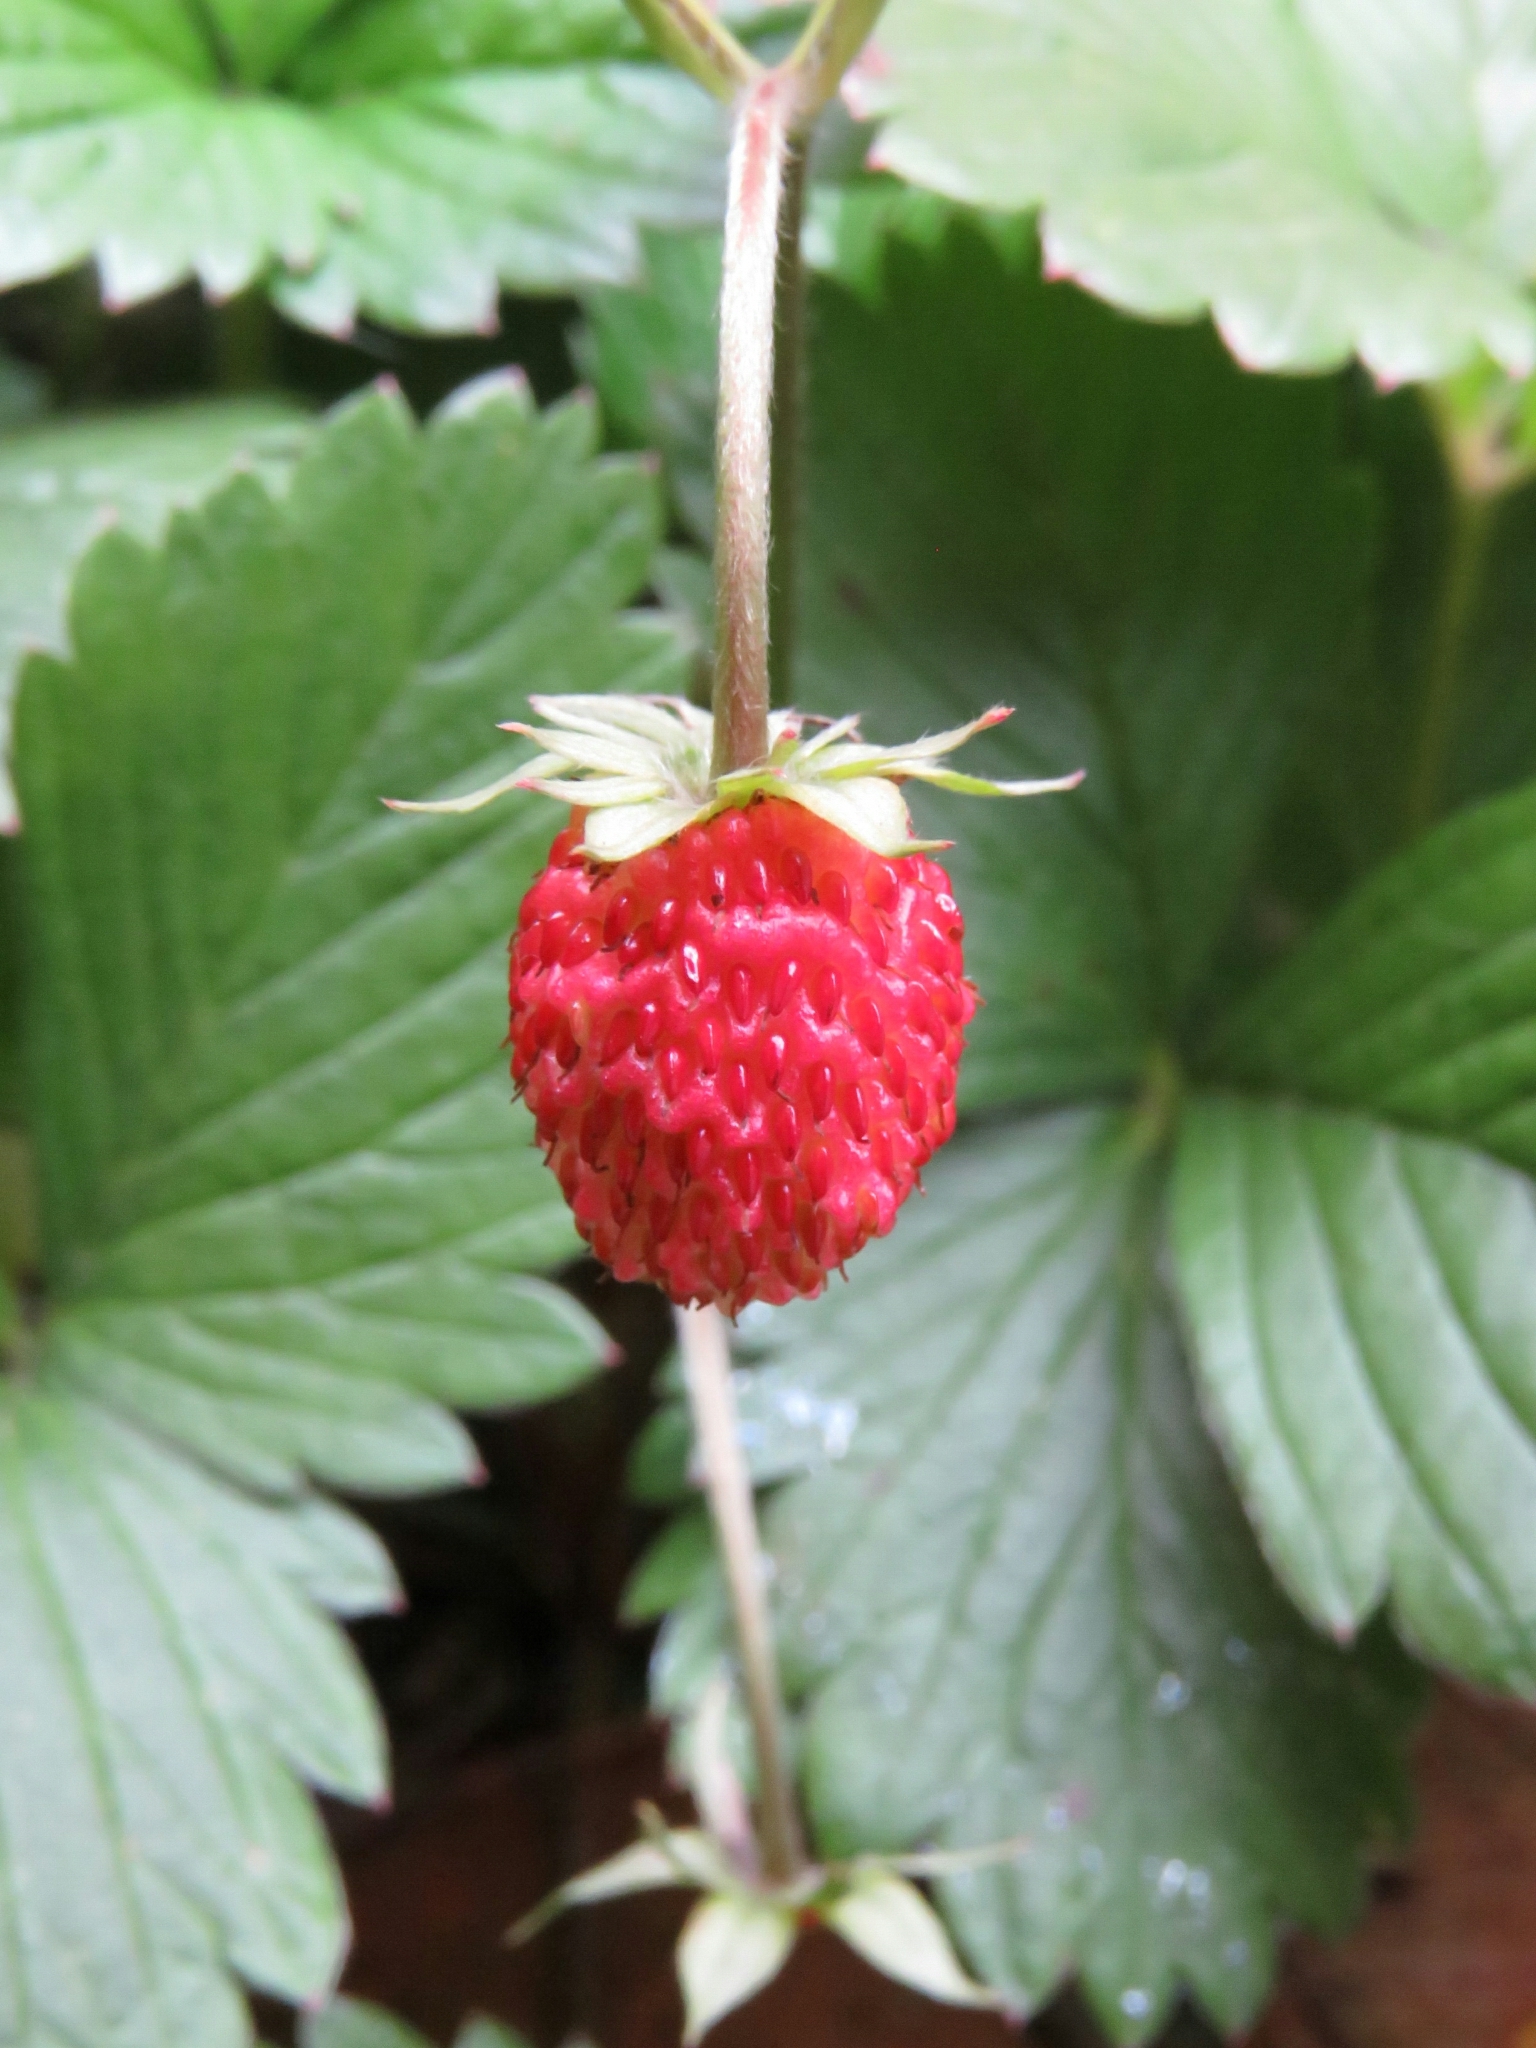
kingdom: Plantae
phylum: Tracheophyta
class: Magnoliopsida
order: Rosales
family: Rosaceae
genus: Fragaria
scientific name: Fragaria vesca
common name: Wild strawberry
